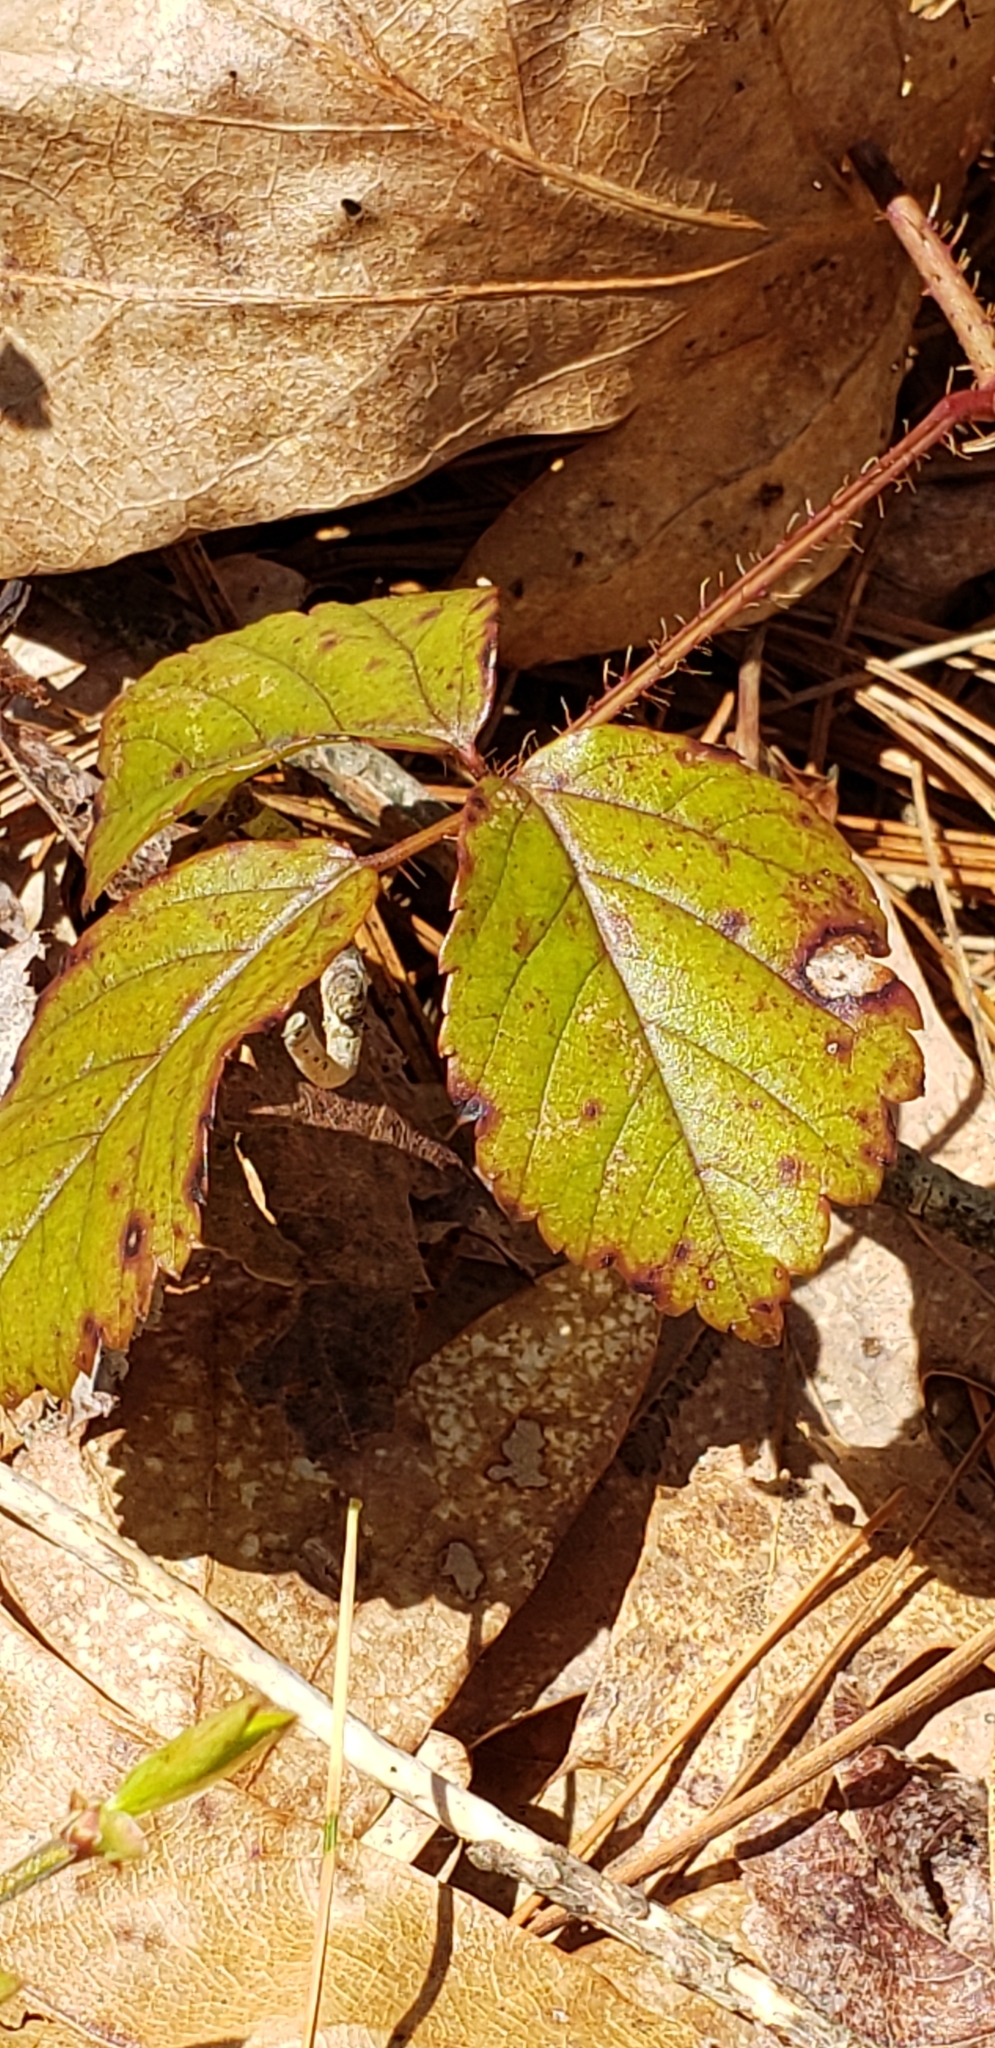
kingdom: Plantae
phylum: Tracheophyta
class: Magnoliopsida
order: Rosales
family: Rosaceae
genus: Rubus
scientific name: Rubus flagellaris
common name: American dewberry
